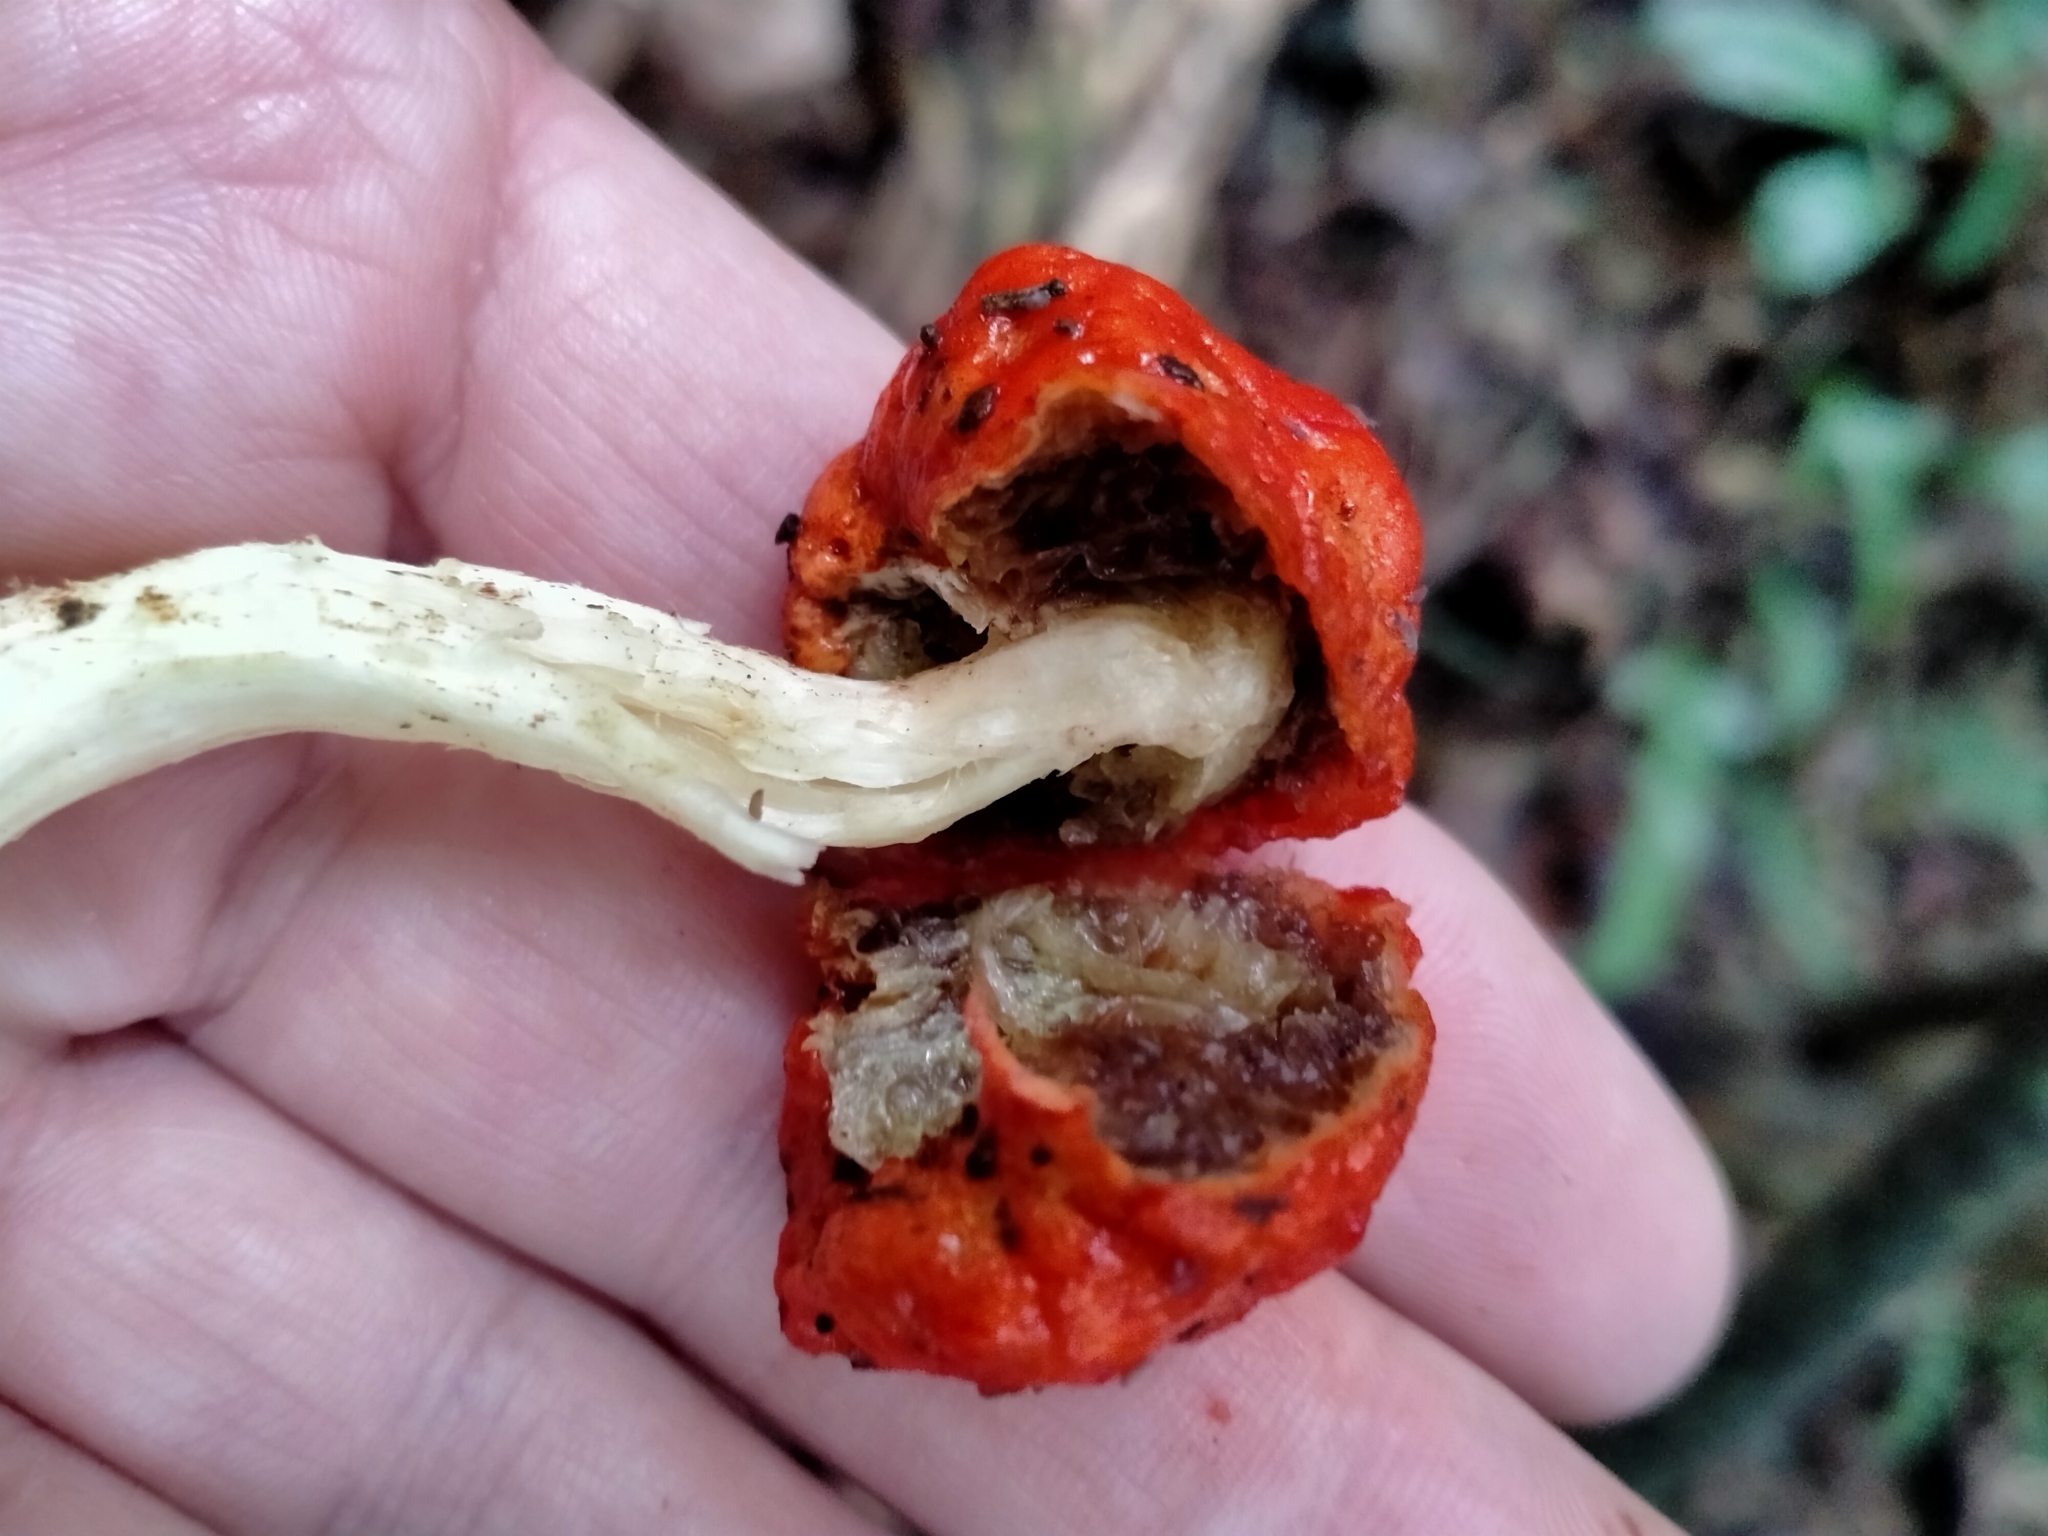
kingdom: Fungi
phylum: Basidiomycota
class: Agaricomycetes
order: Agaricales
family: Strophariaceae
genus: Leratiomyces
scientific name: Leratiomyces erythrocephalus
